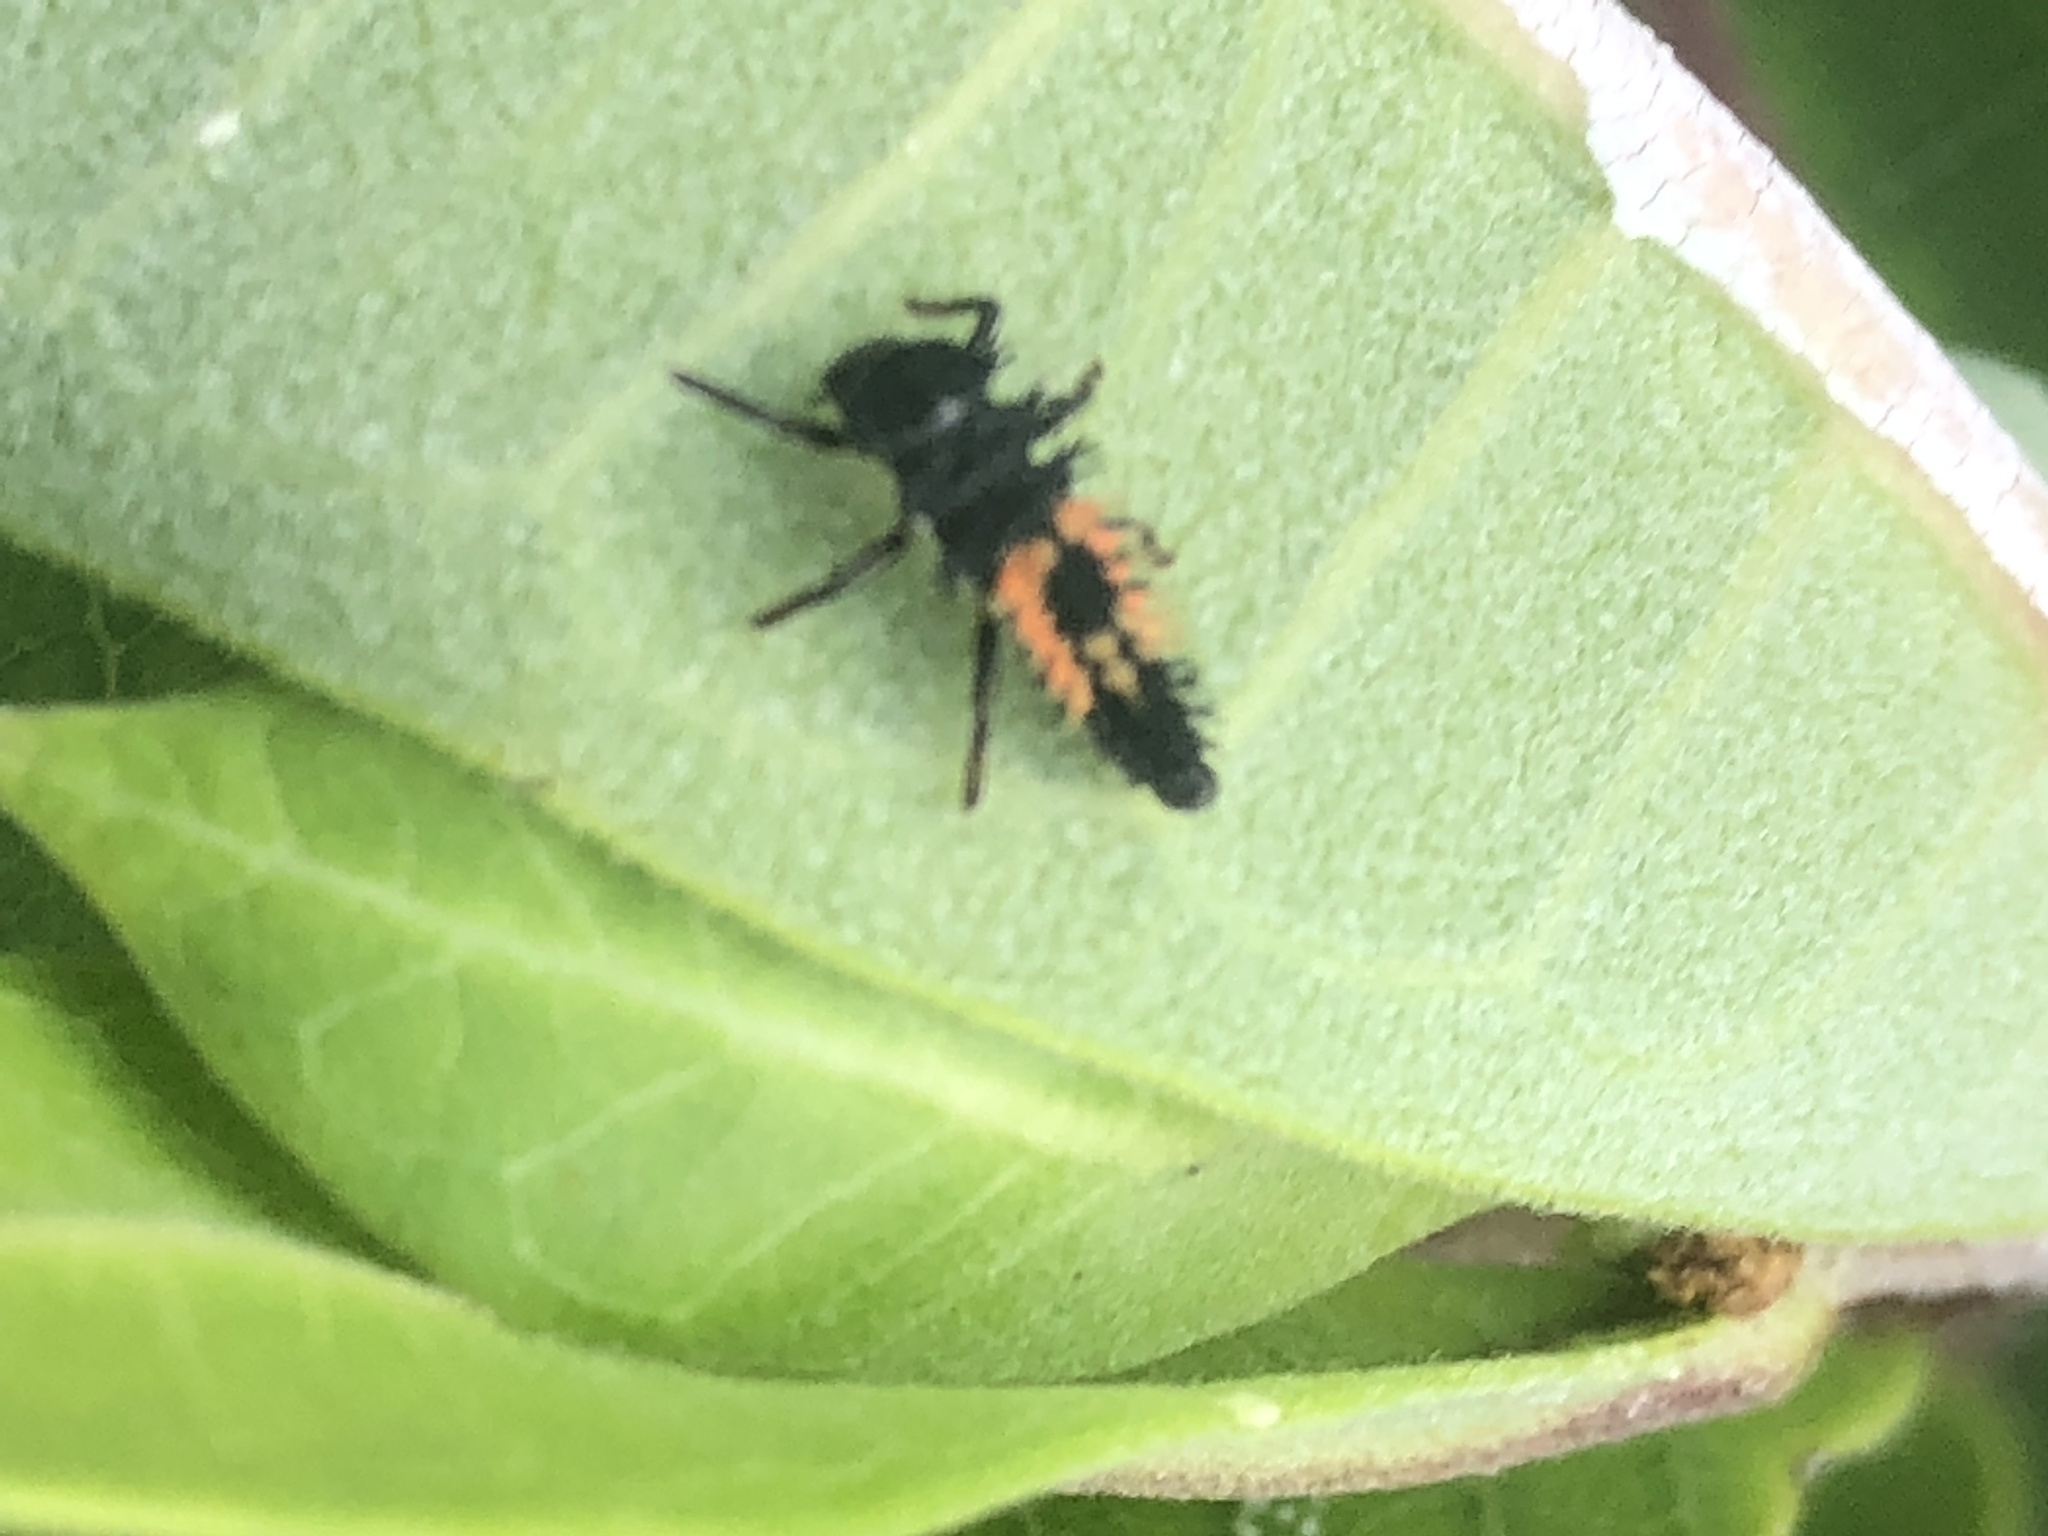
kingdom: Animalia
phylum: Arthropoda
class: Insecta
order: Coleoptera
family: Coccinellidae
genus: Harmonia
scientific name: Harmonia axyridis
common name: Harlequin ladybird
